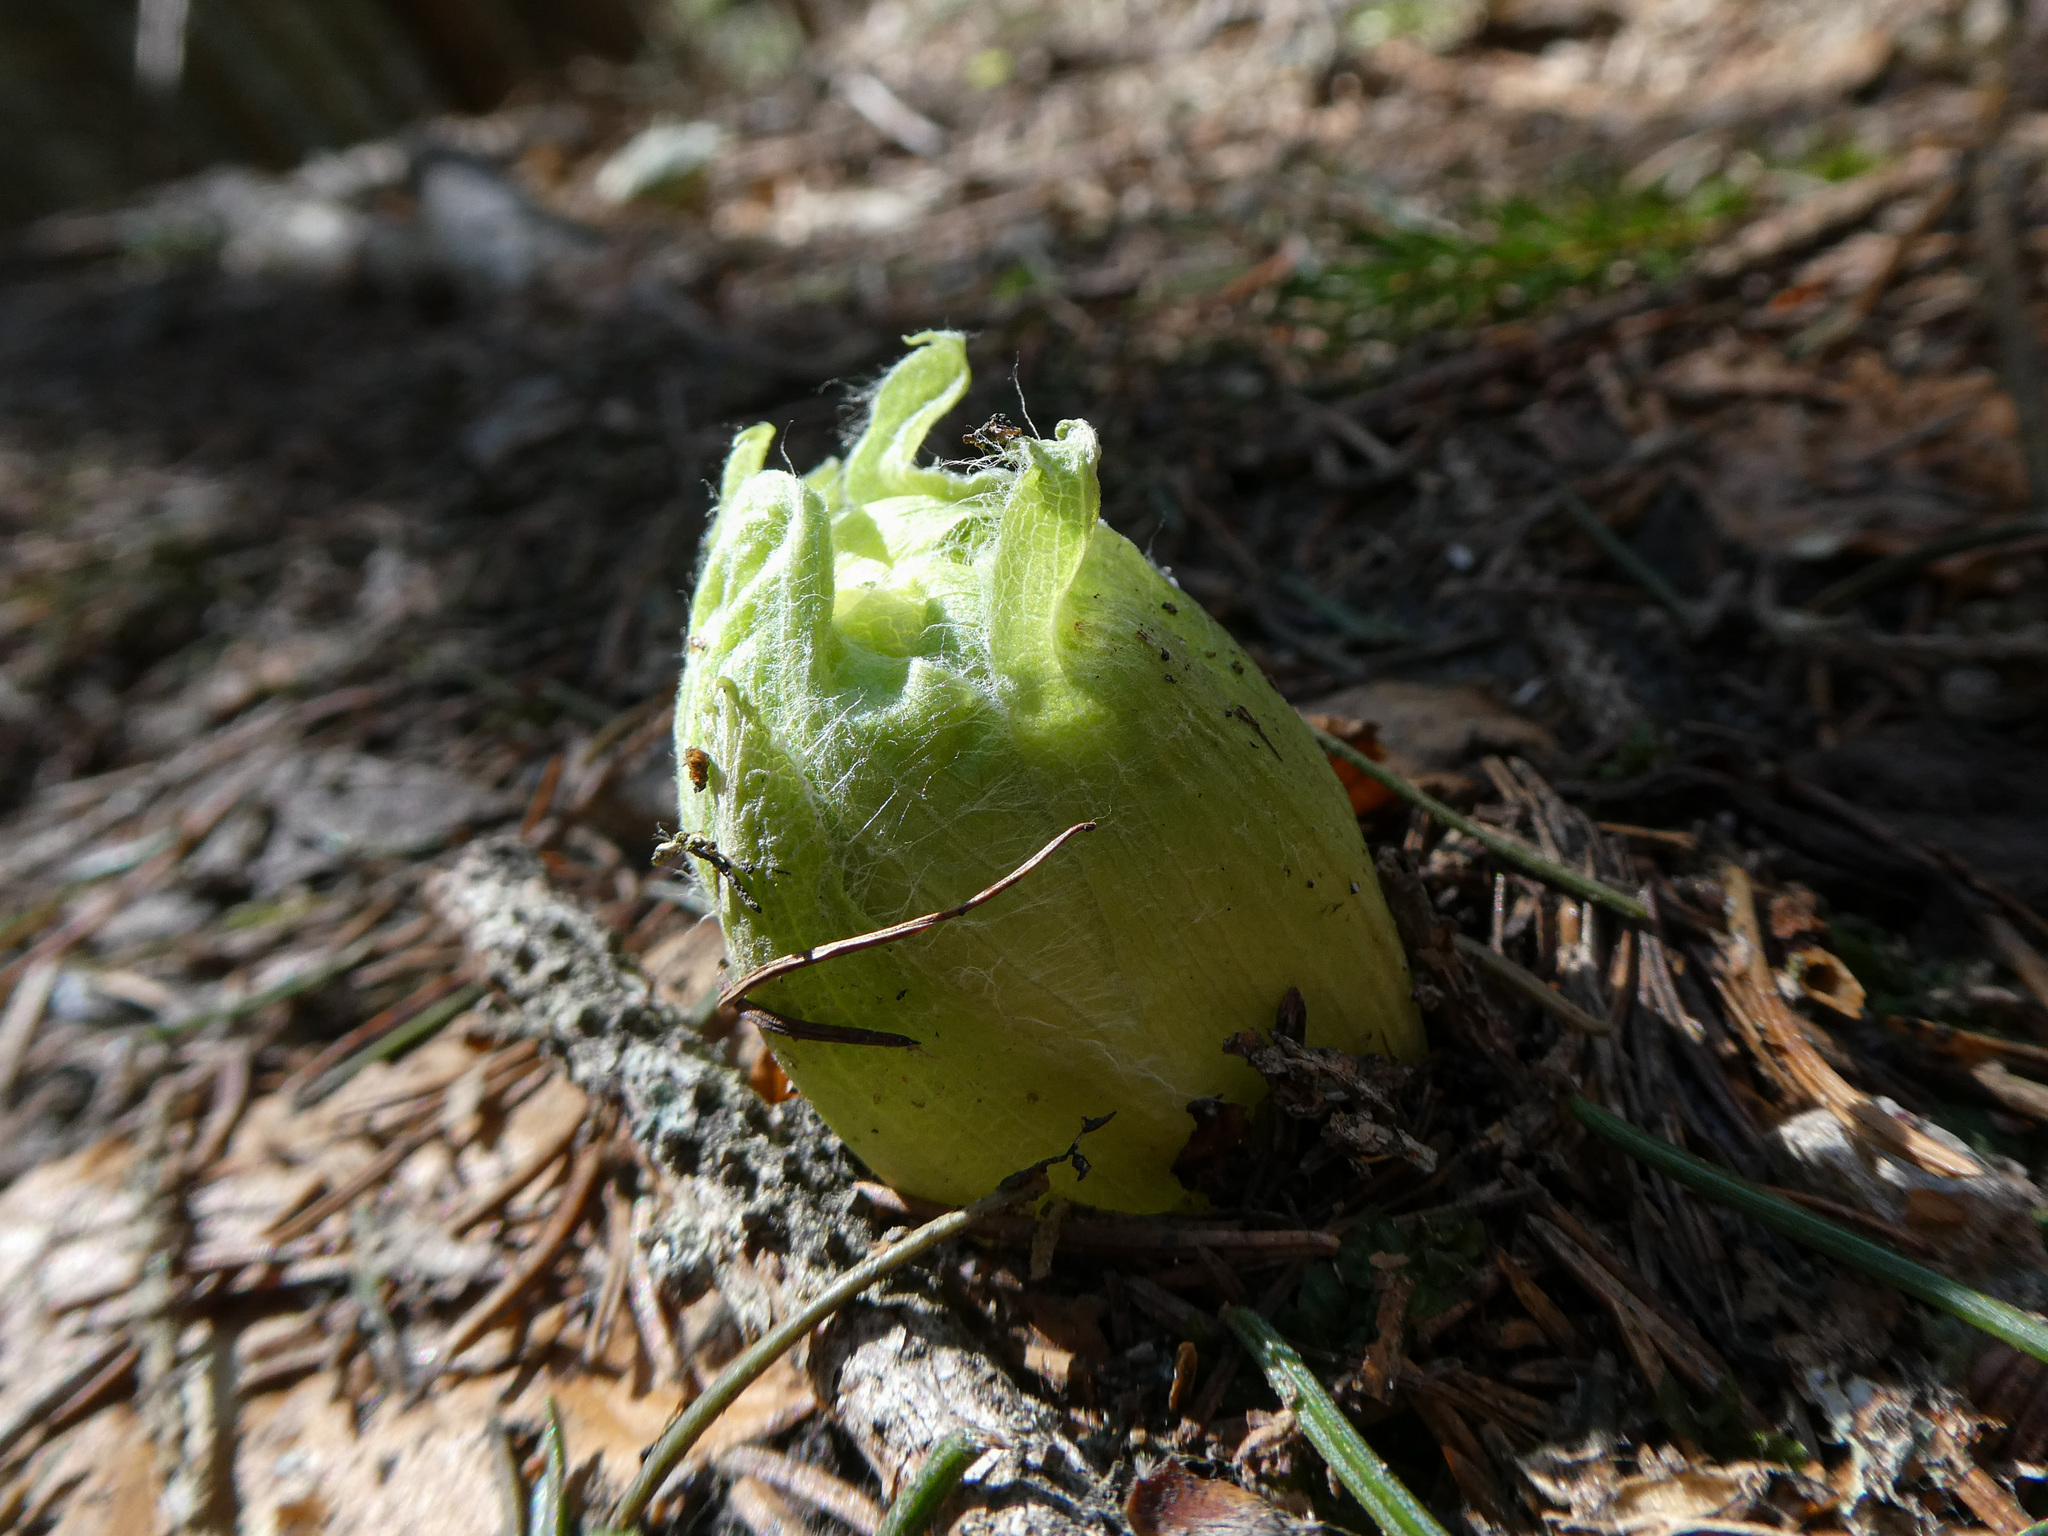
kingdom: Plantae
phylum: Tracheophyta
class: Magnoliopsida
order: Asterales
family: Asteraceae
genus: Petasites
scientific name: Petasites albus
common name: White butterbur
